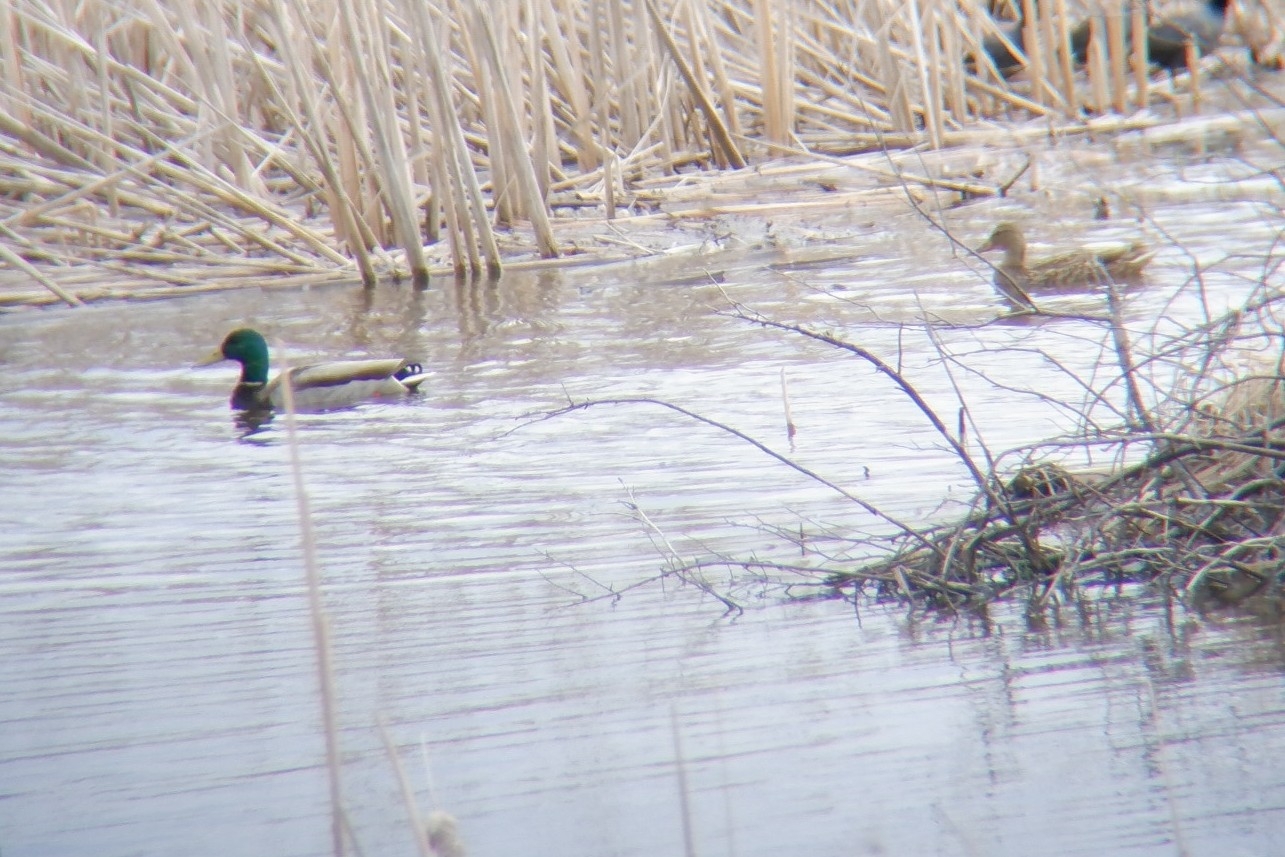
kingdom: Animalia
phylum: Chordata
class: Aves
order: Anseriformes
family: Anatidae
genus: Anas
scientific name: Anas platyrhynchos
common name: Mallard
